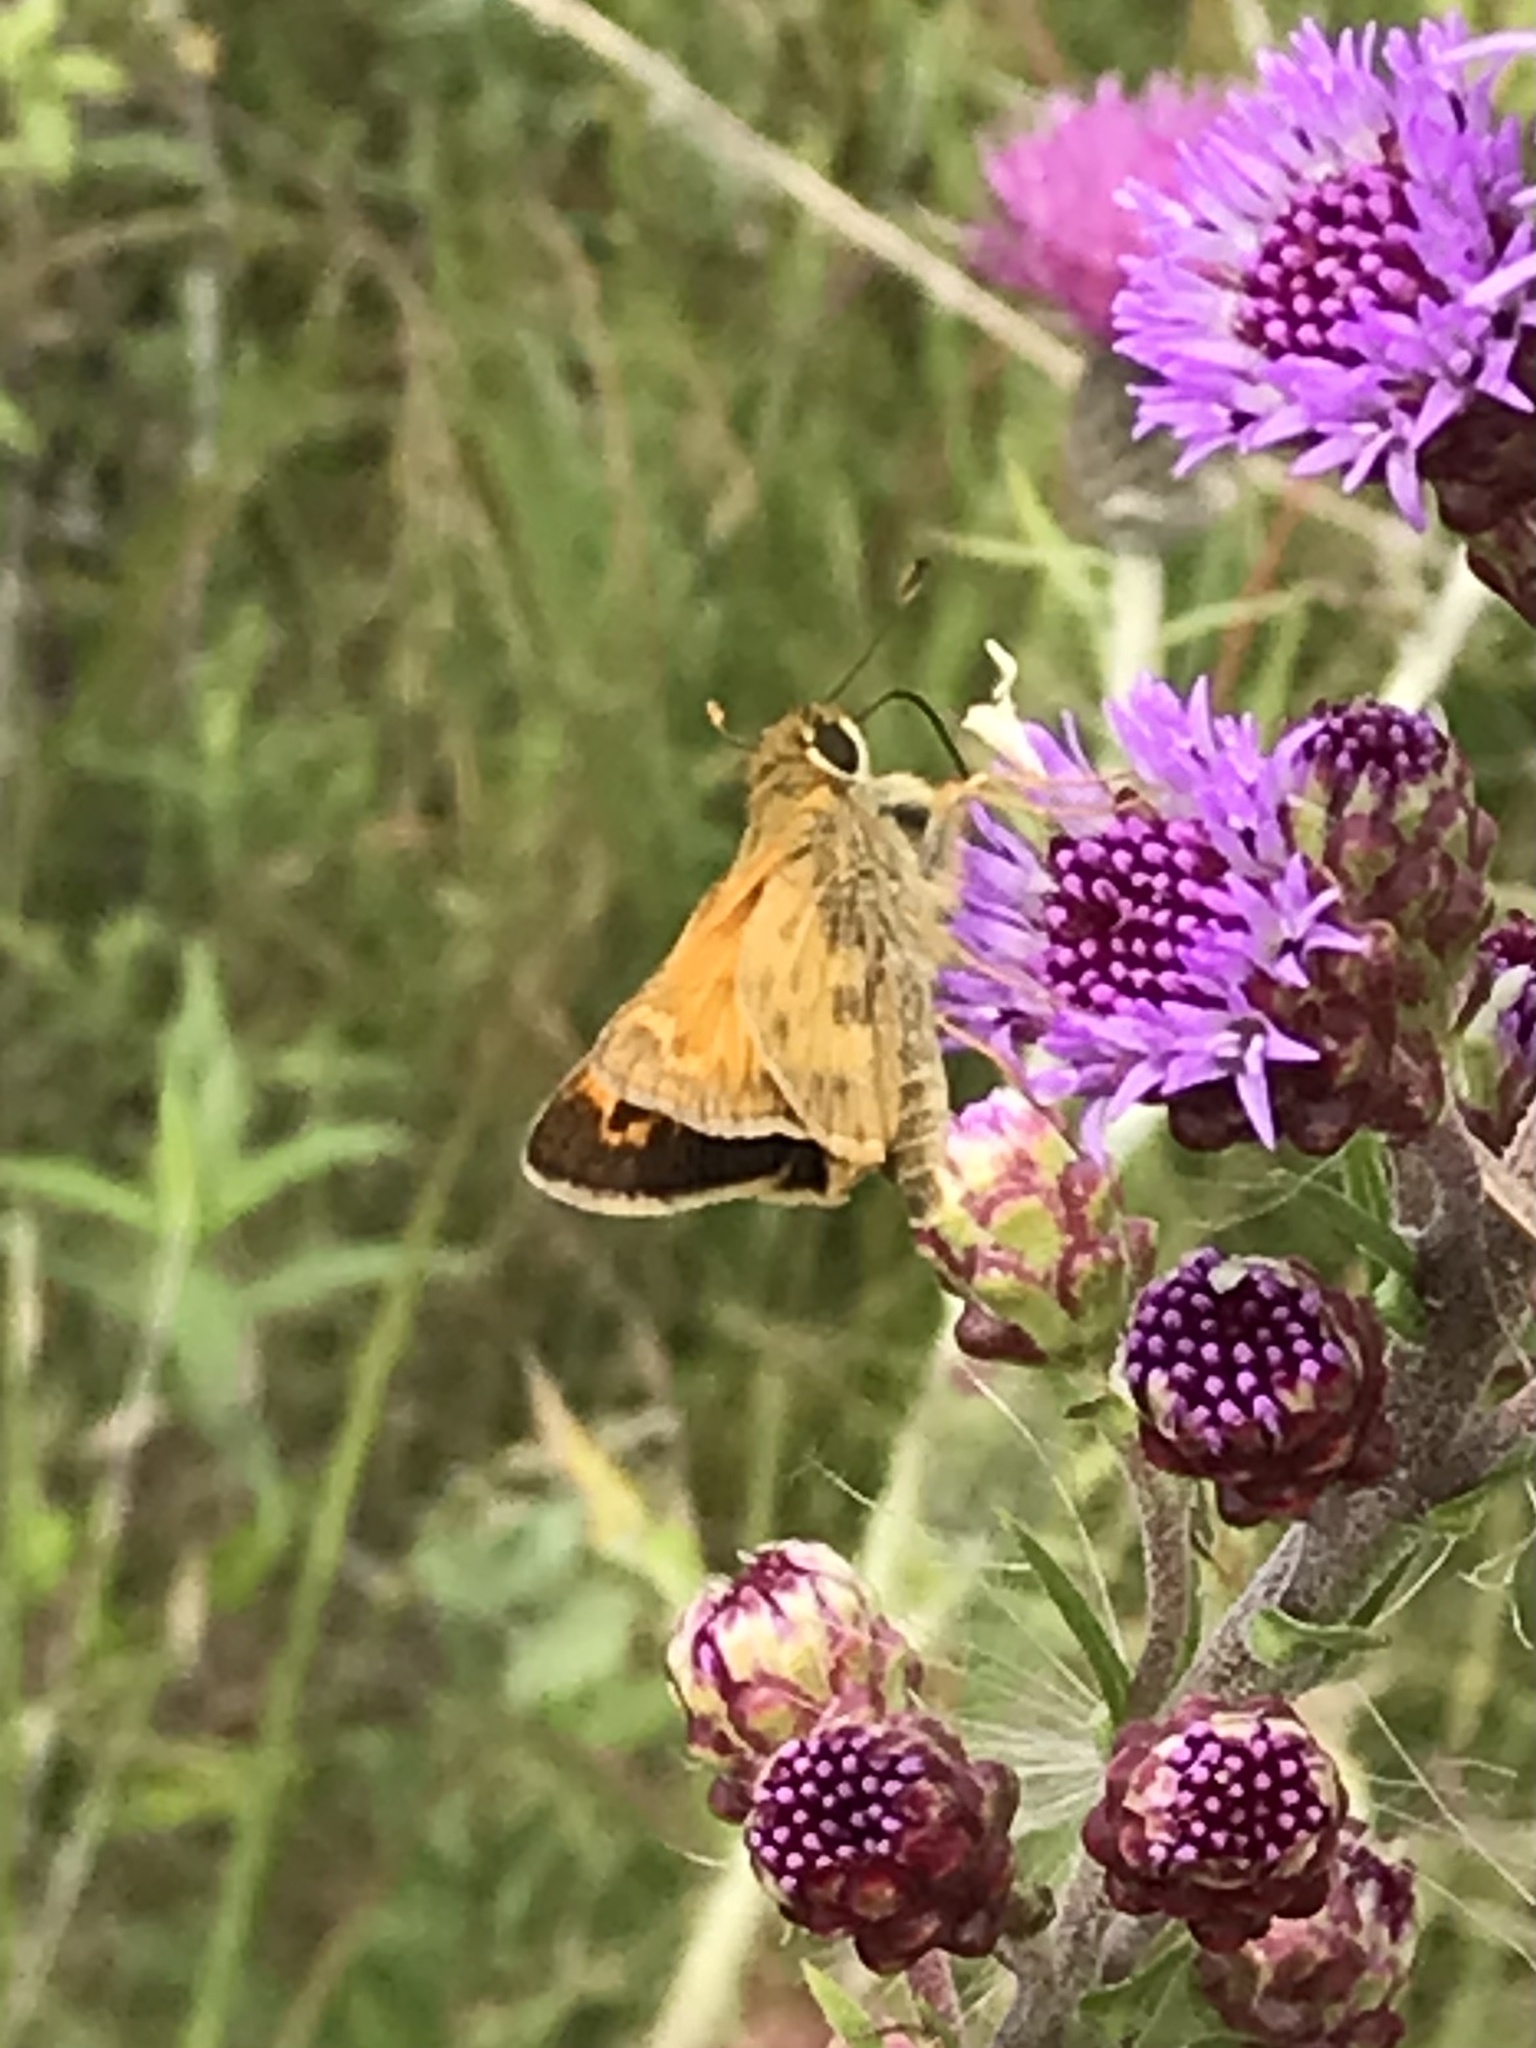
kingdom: Animalia
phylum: Arthropoda
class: Insecta
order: Lepidoptera
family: Hesperiidae
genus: Atalopedes
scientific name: Atalopedes
